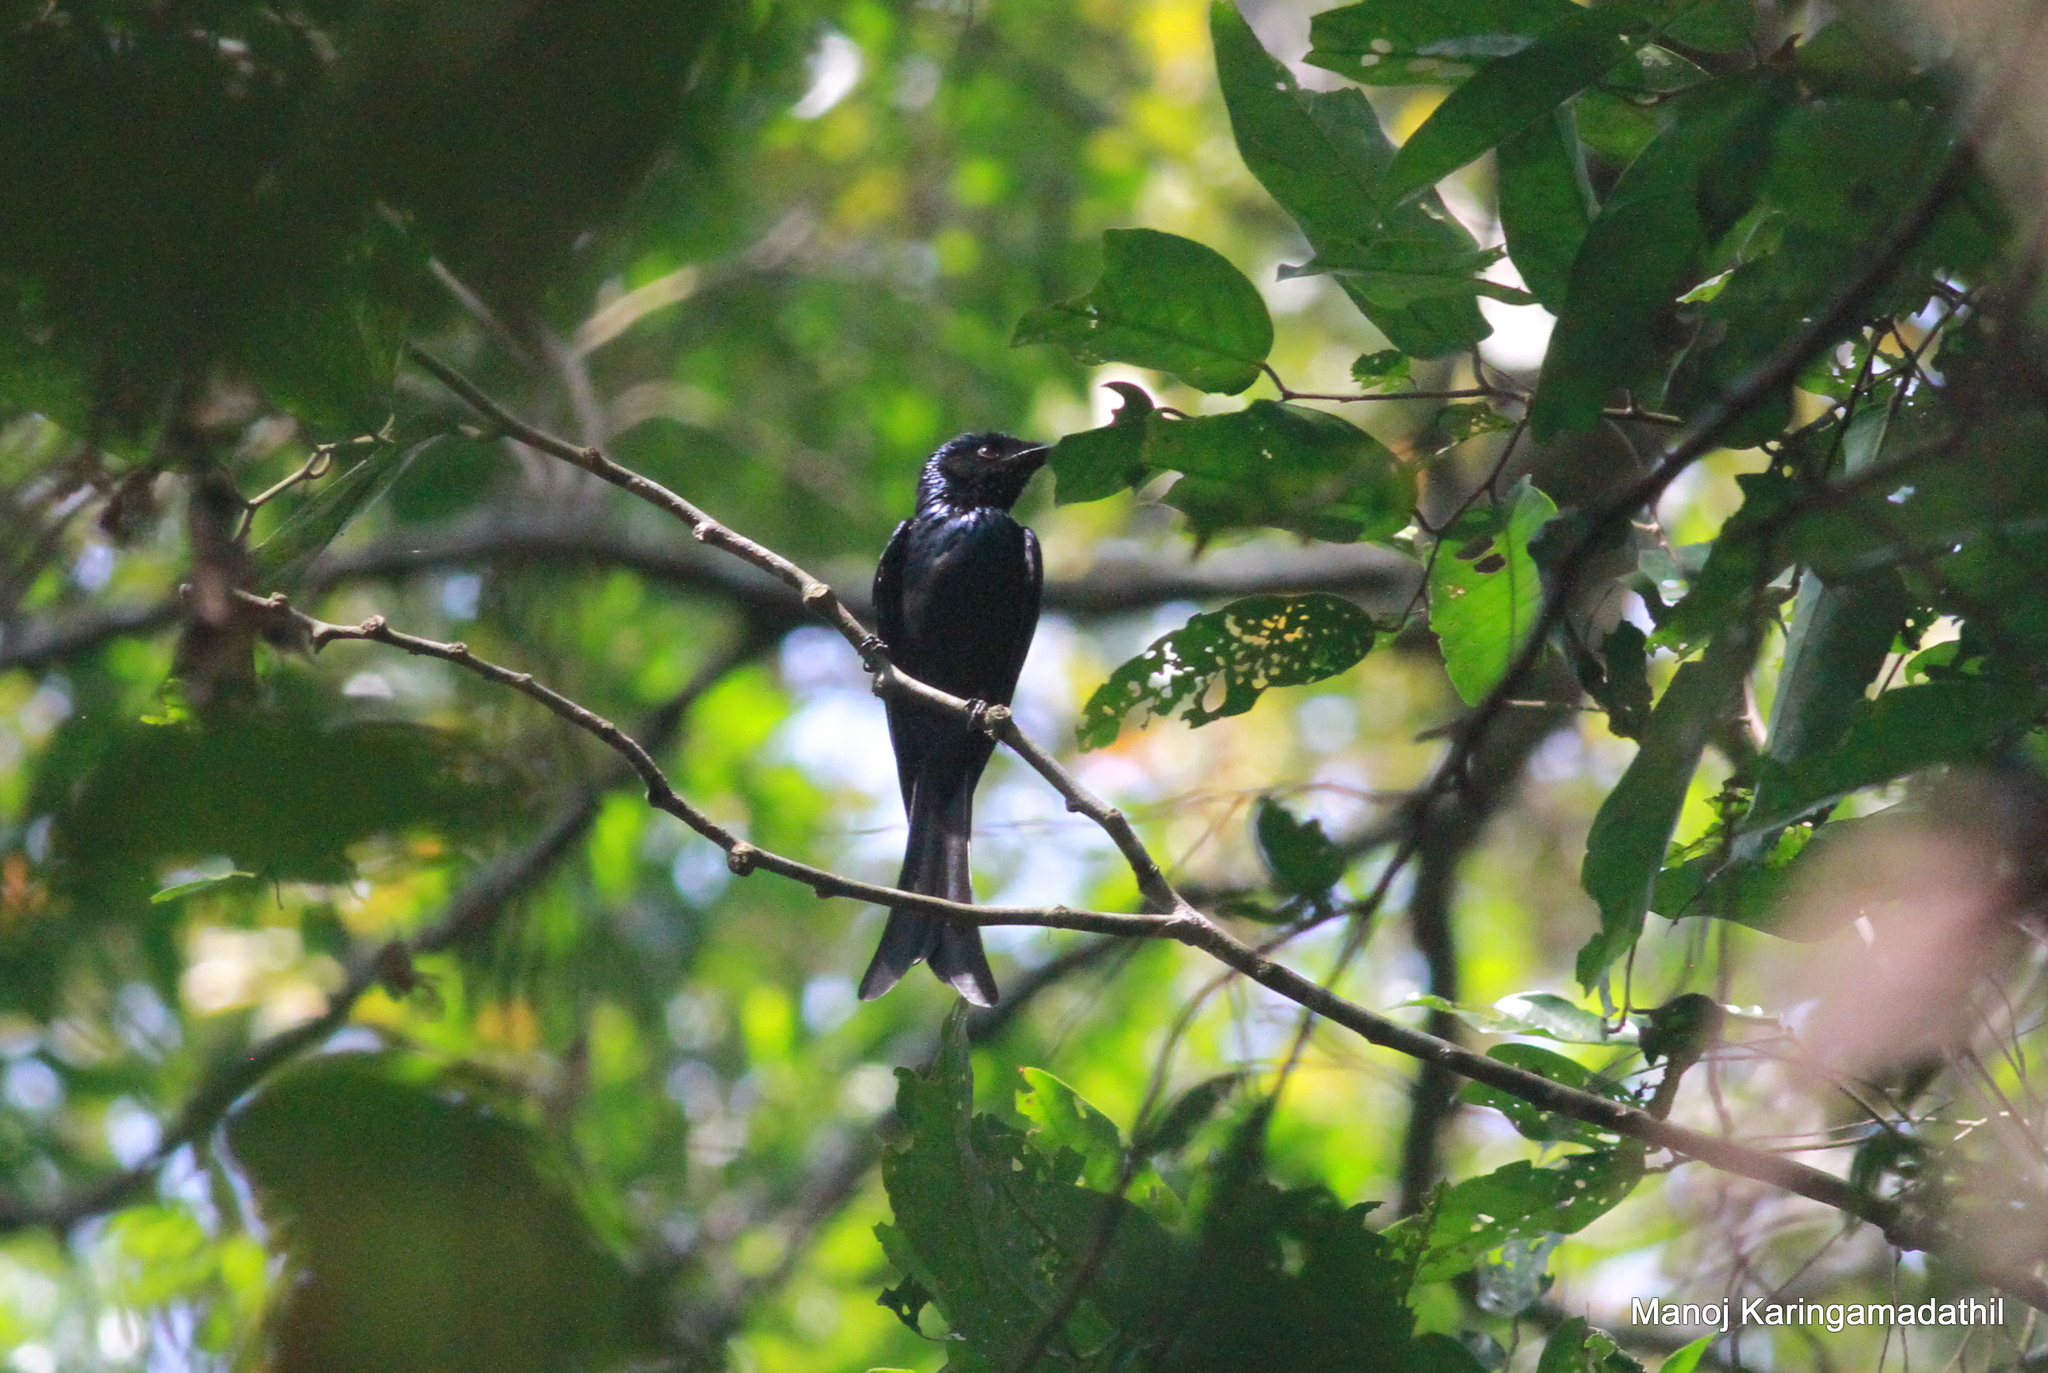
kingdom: Animalia
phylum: Chordata
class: Aves
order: Passeriformes
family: Dicruridae
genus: Dicrurus
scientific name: Dicrurus aeneus
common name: Bronzed drongo
